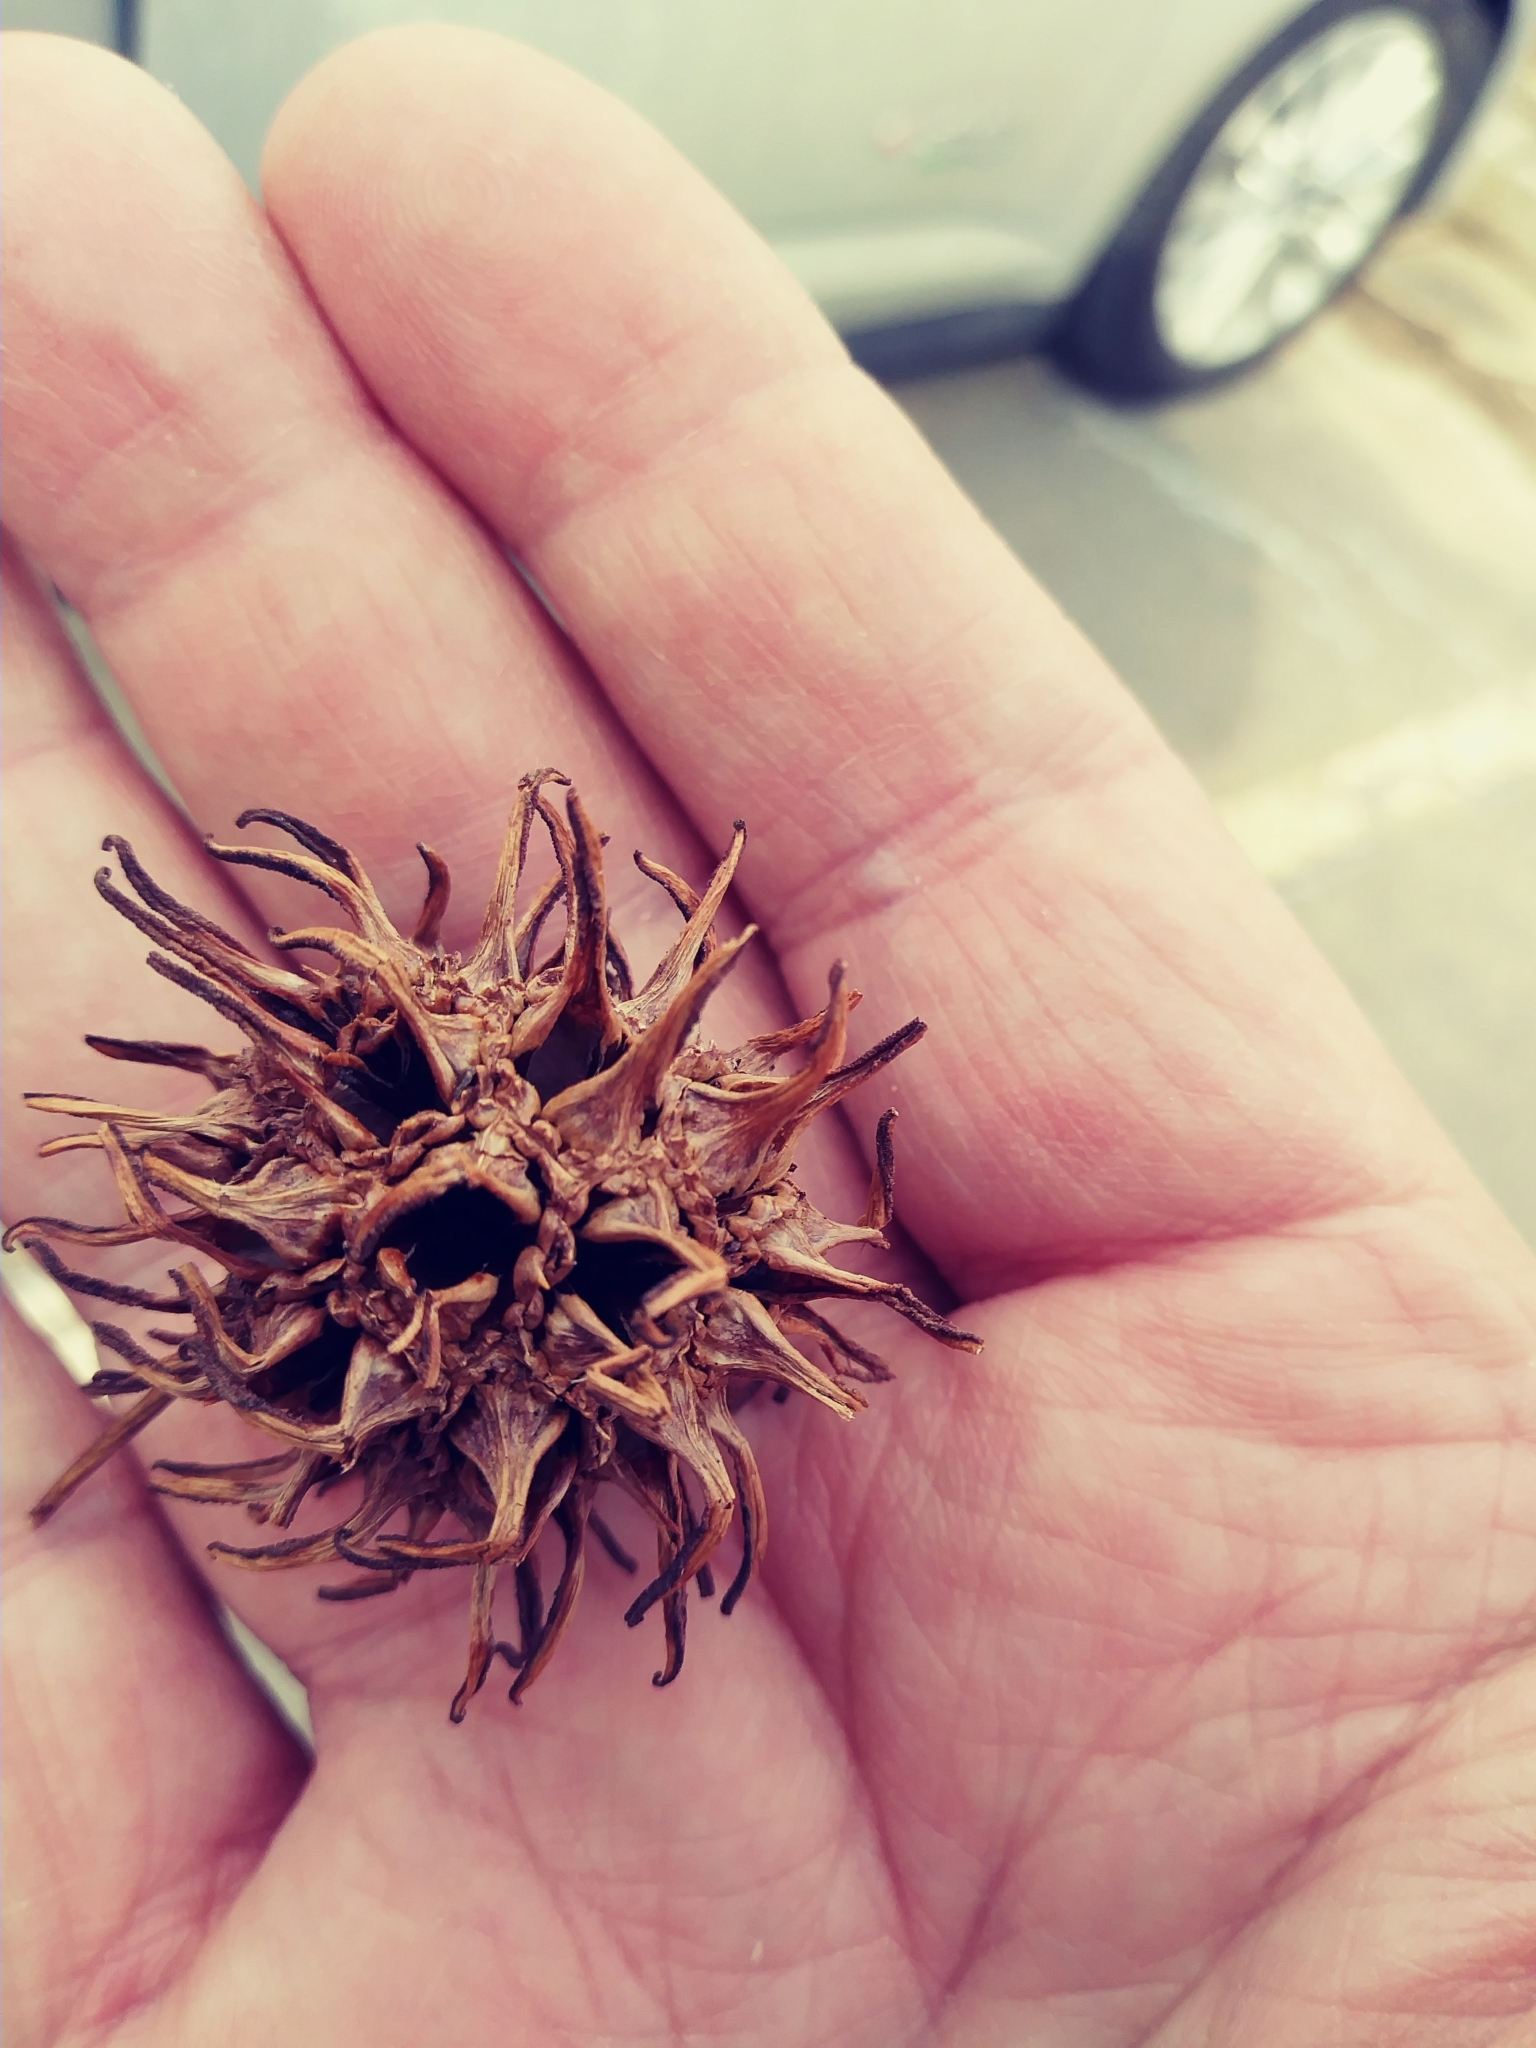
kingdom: Plantae
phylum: Tracheophyta
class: Magnoliopsida
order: Saxifragales
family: Altingiaceae
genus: Liquidambar
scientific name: Liquidambar styraciflua
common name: Sweet gum
